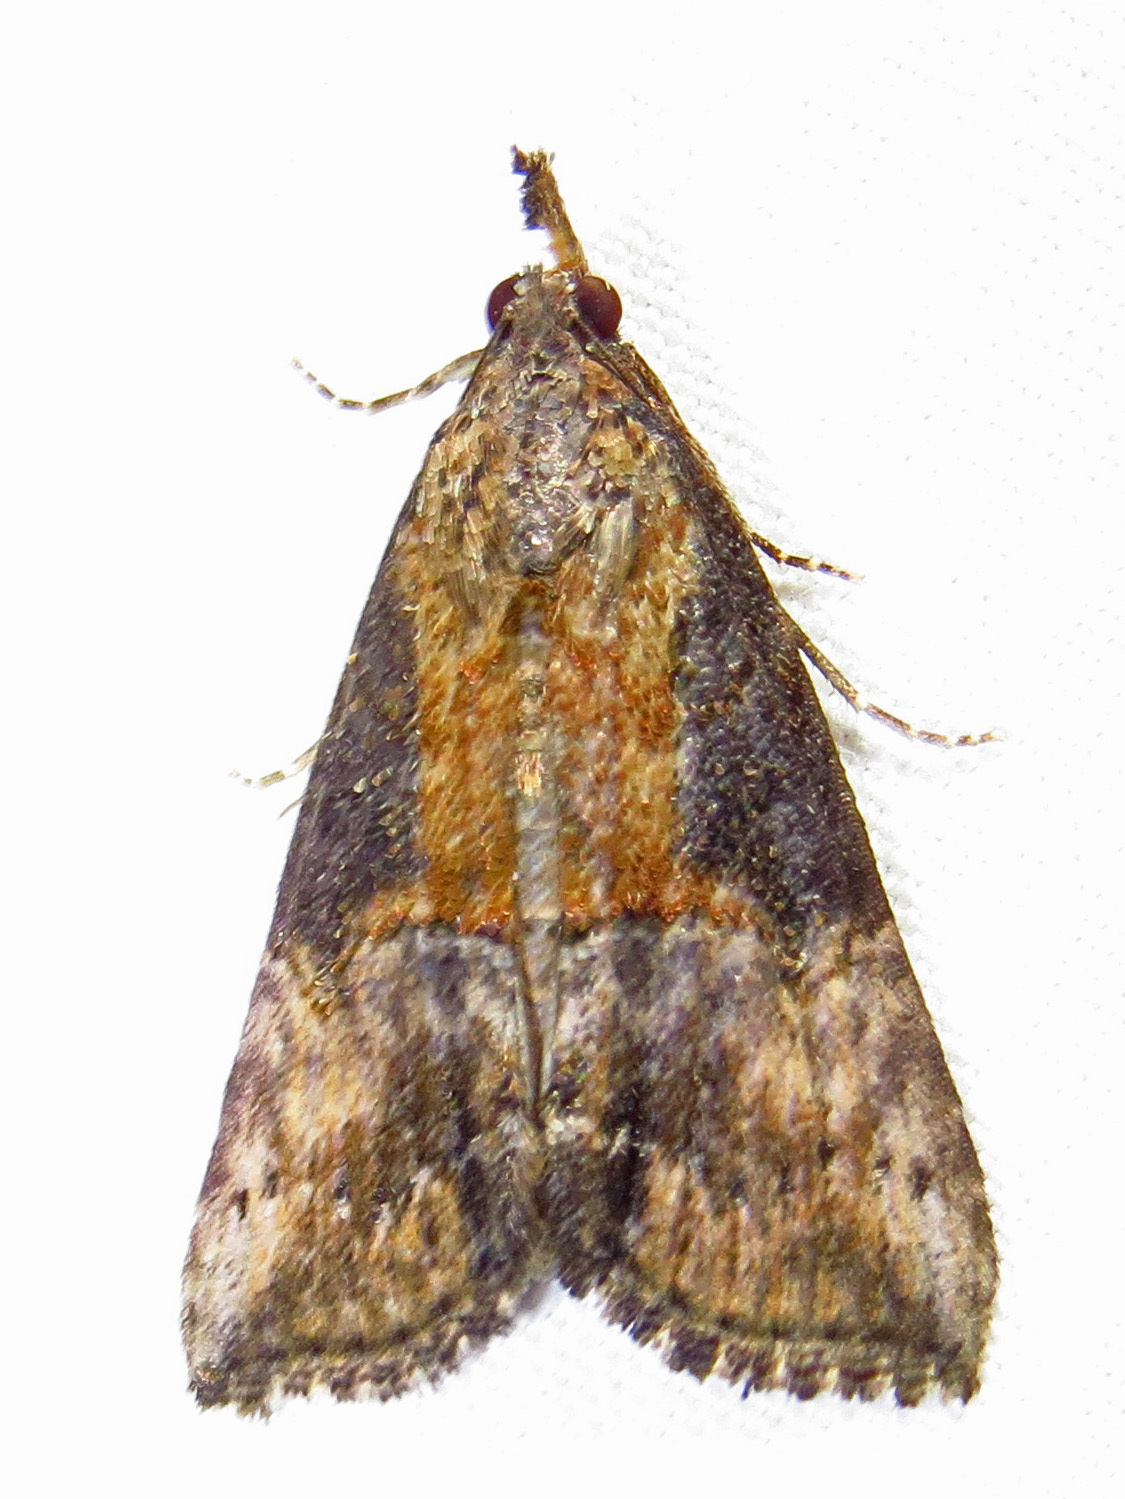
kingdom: Animalia
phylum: Arthropoda
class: Insecta
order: Lepidoptera
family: Erebidae
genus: Hypena
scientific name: Hypena scabra
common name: Green cloverworm
